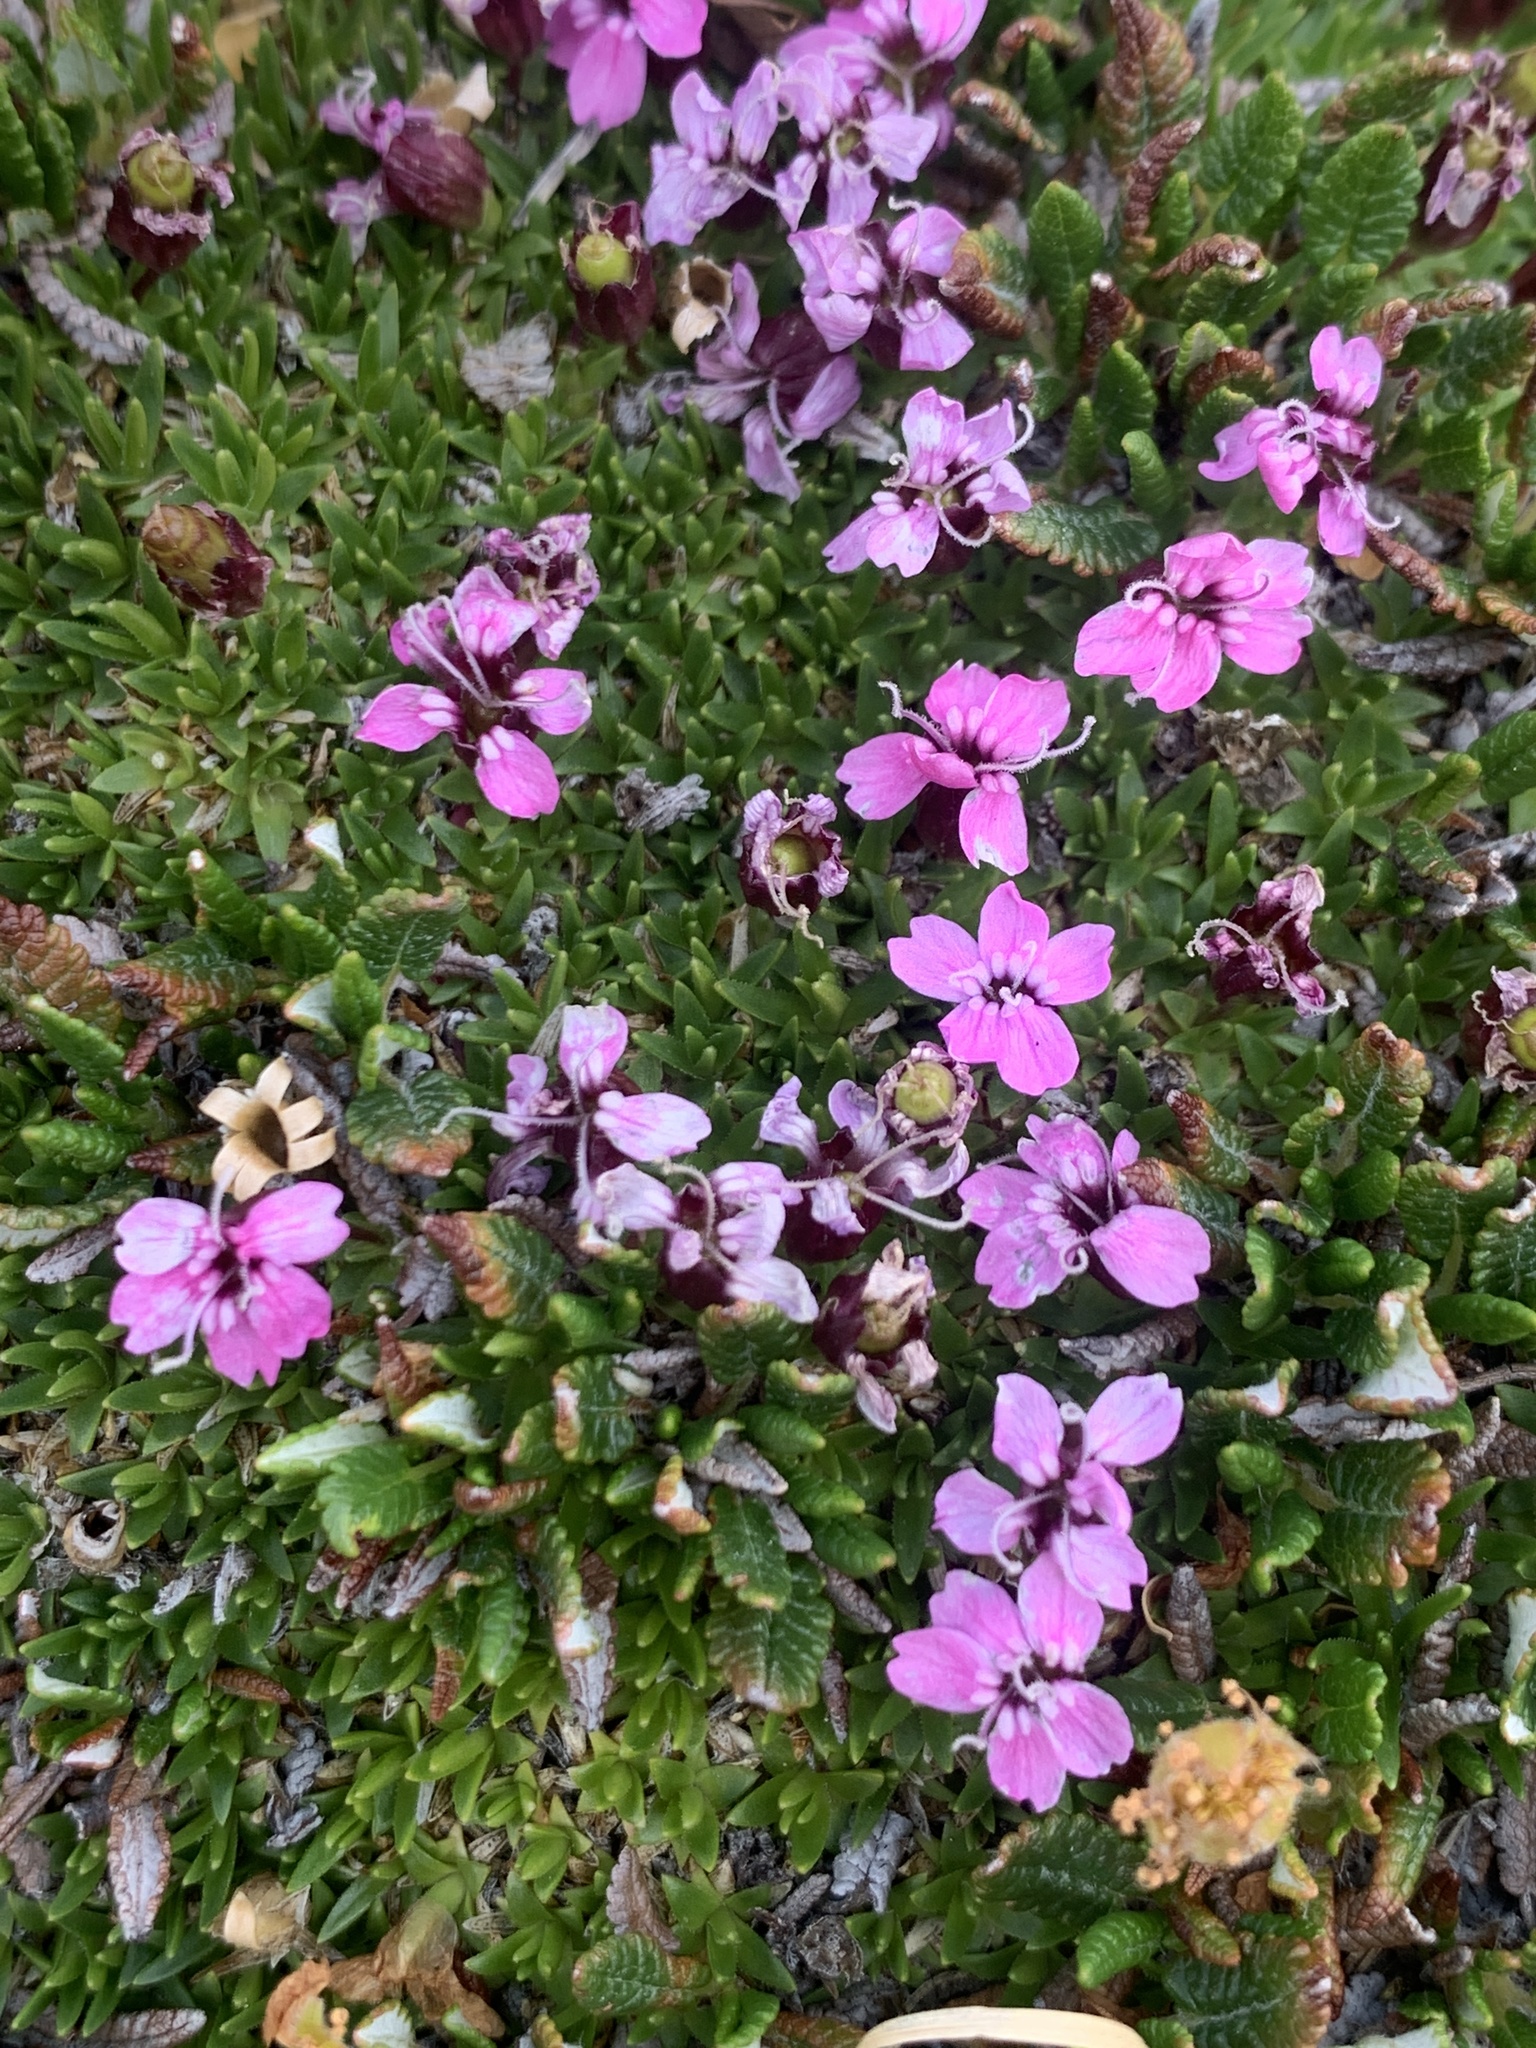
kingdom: Plantae
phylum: Tracheophyta
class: Magnoliopsida
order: Caryophyllales
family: Caryophyllaceae
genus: Silene
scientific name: Silene acaulis
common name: Moss campion
